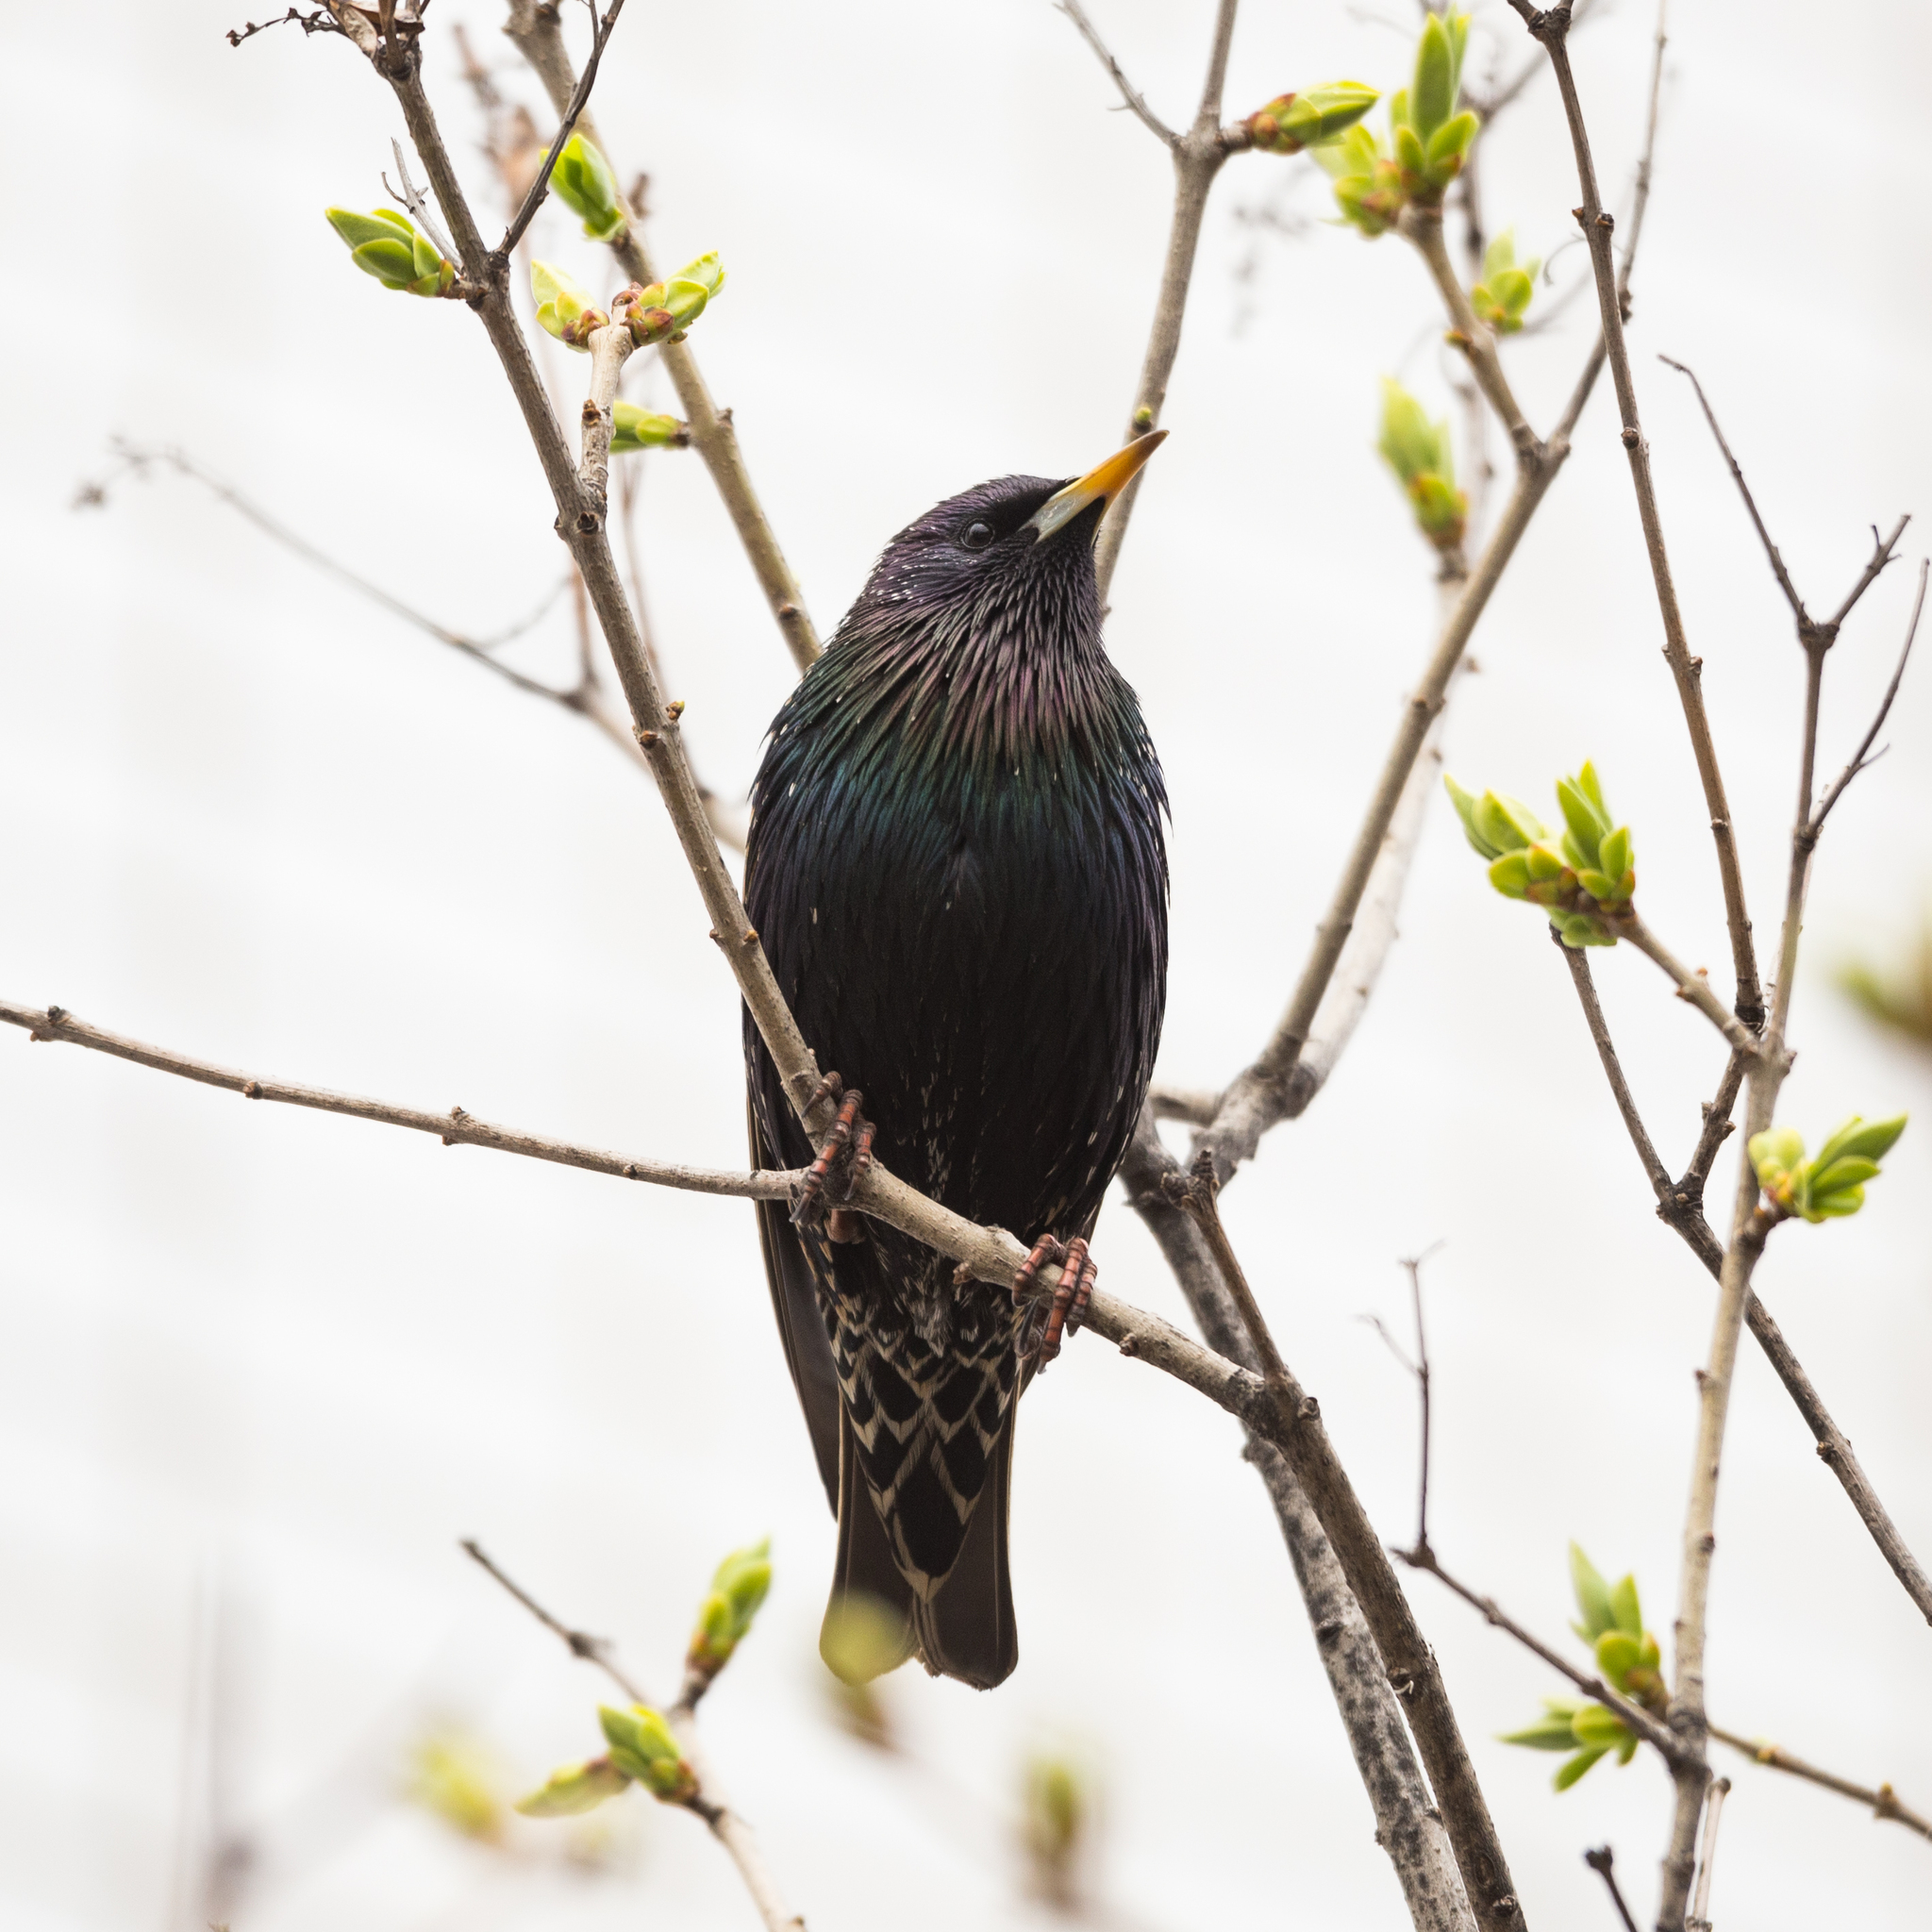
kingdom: Animalia
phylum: Chordata
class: Aves
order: Passeriformes
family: Sturnidae
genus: Sturnus
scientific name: Sturnus vulgaris
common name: Common starling
